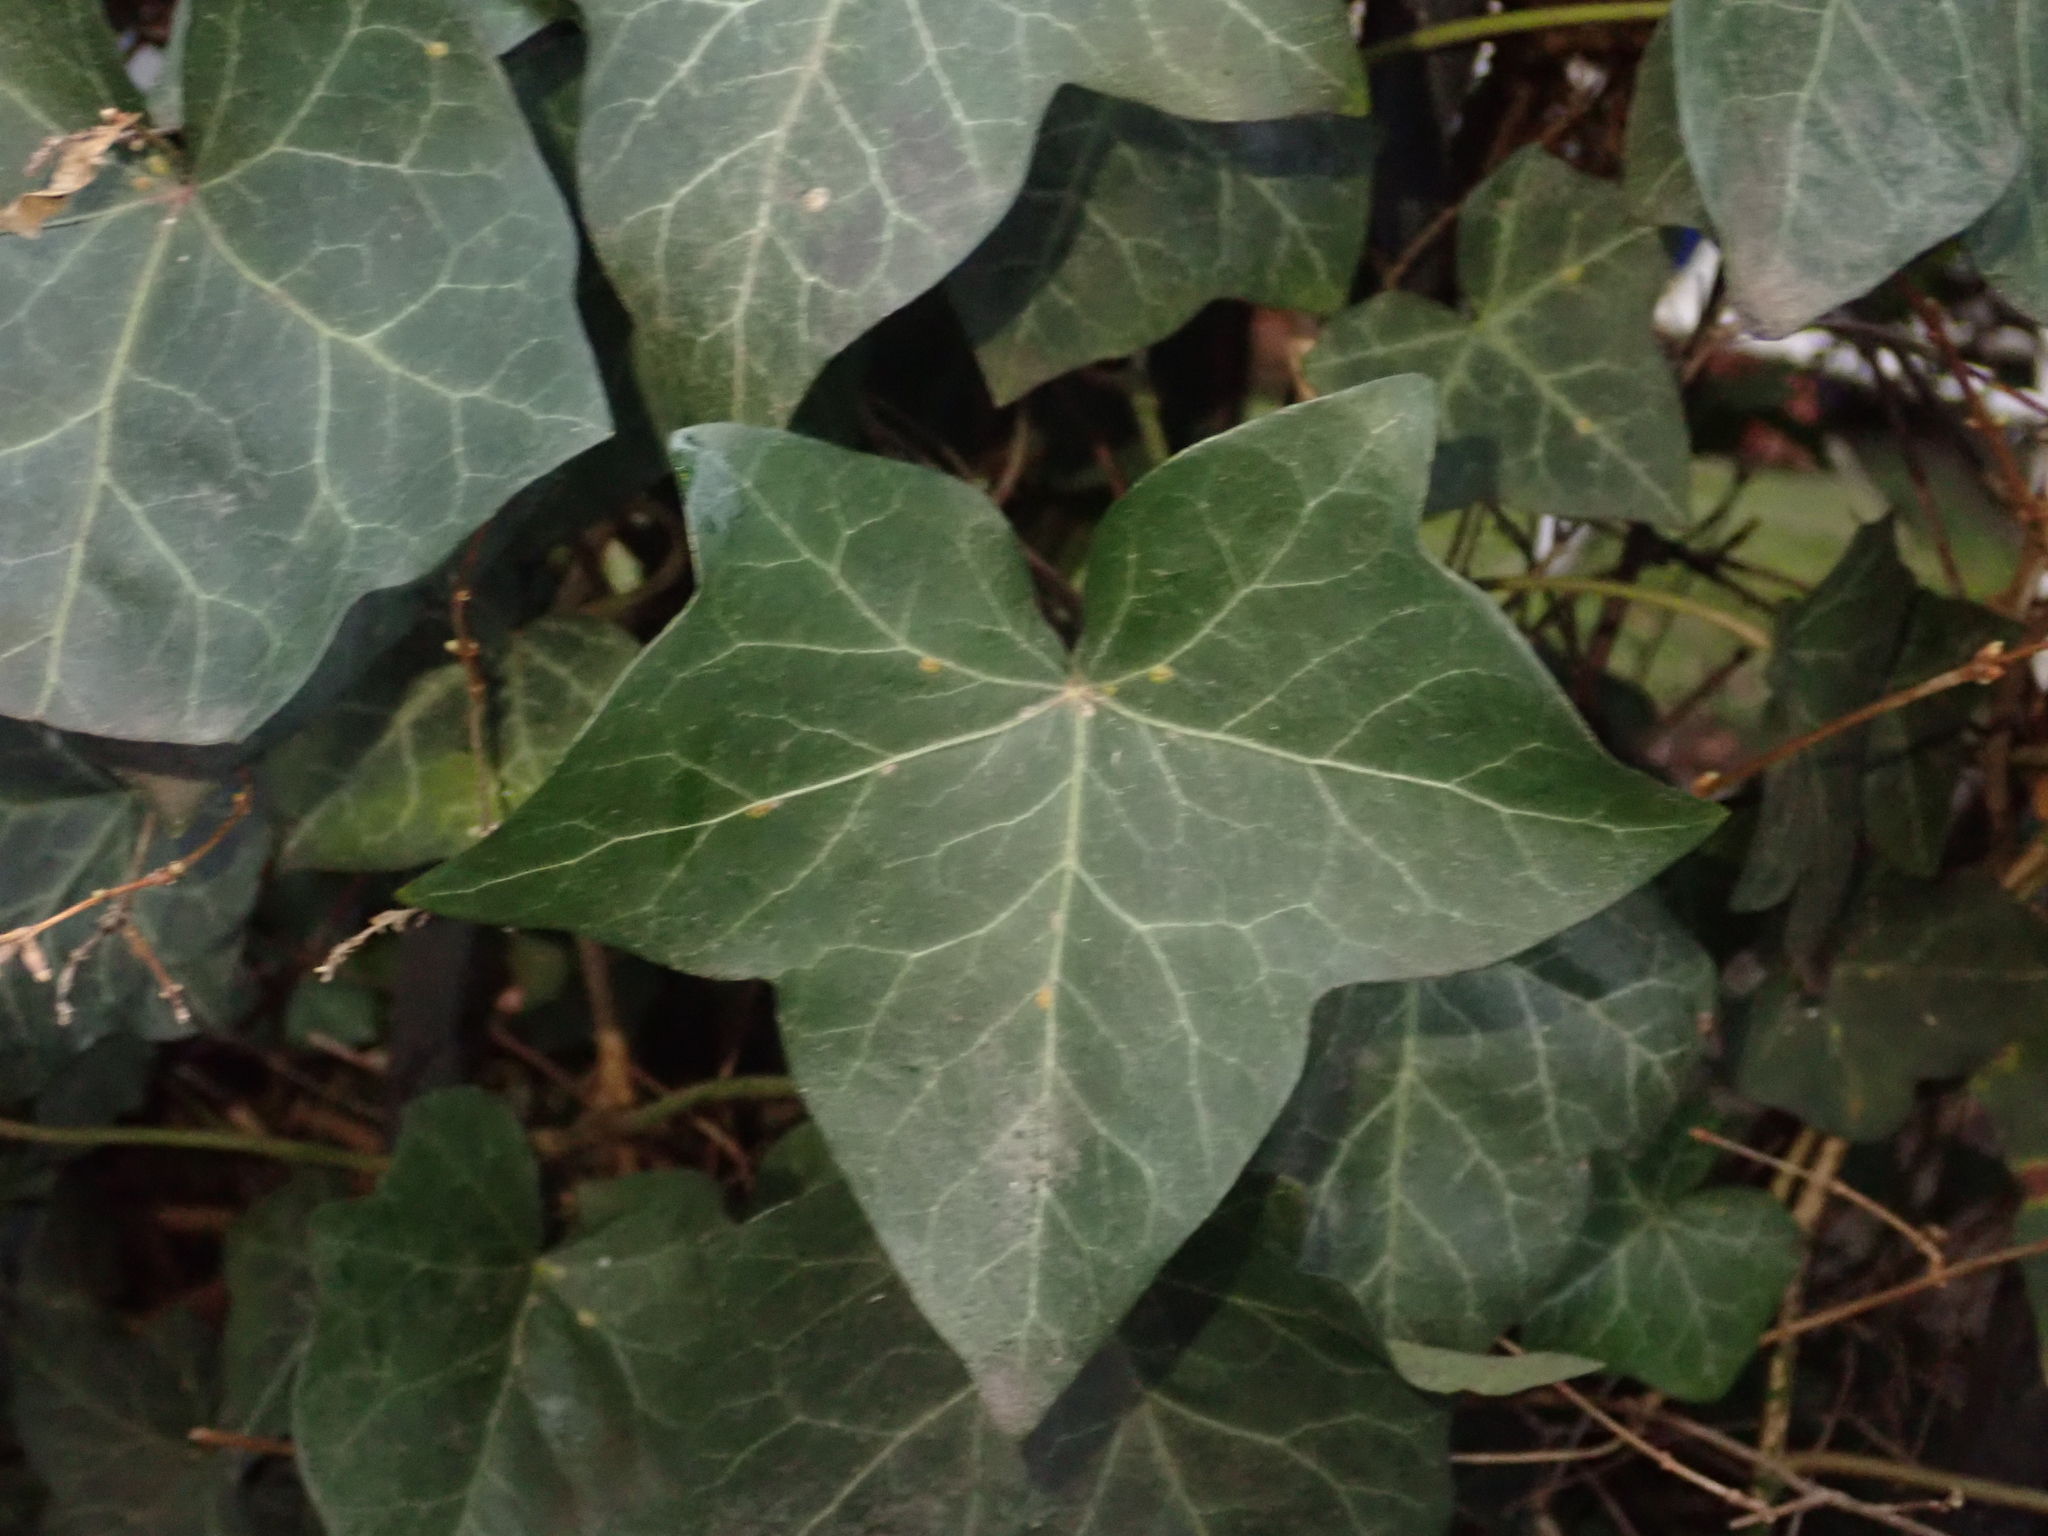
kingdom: Plantae
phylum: Tracheophyta
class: Magnoliopsida
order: Apiales
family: Araliaceae
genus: Hedera
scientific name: Hedera helix
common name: Ivy
